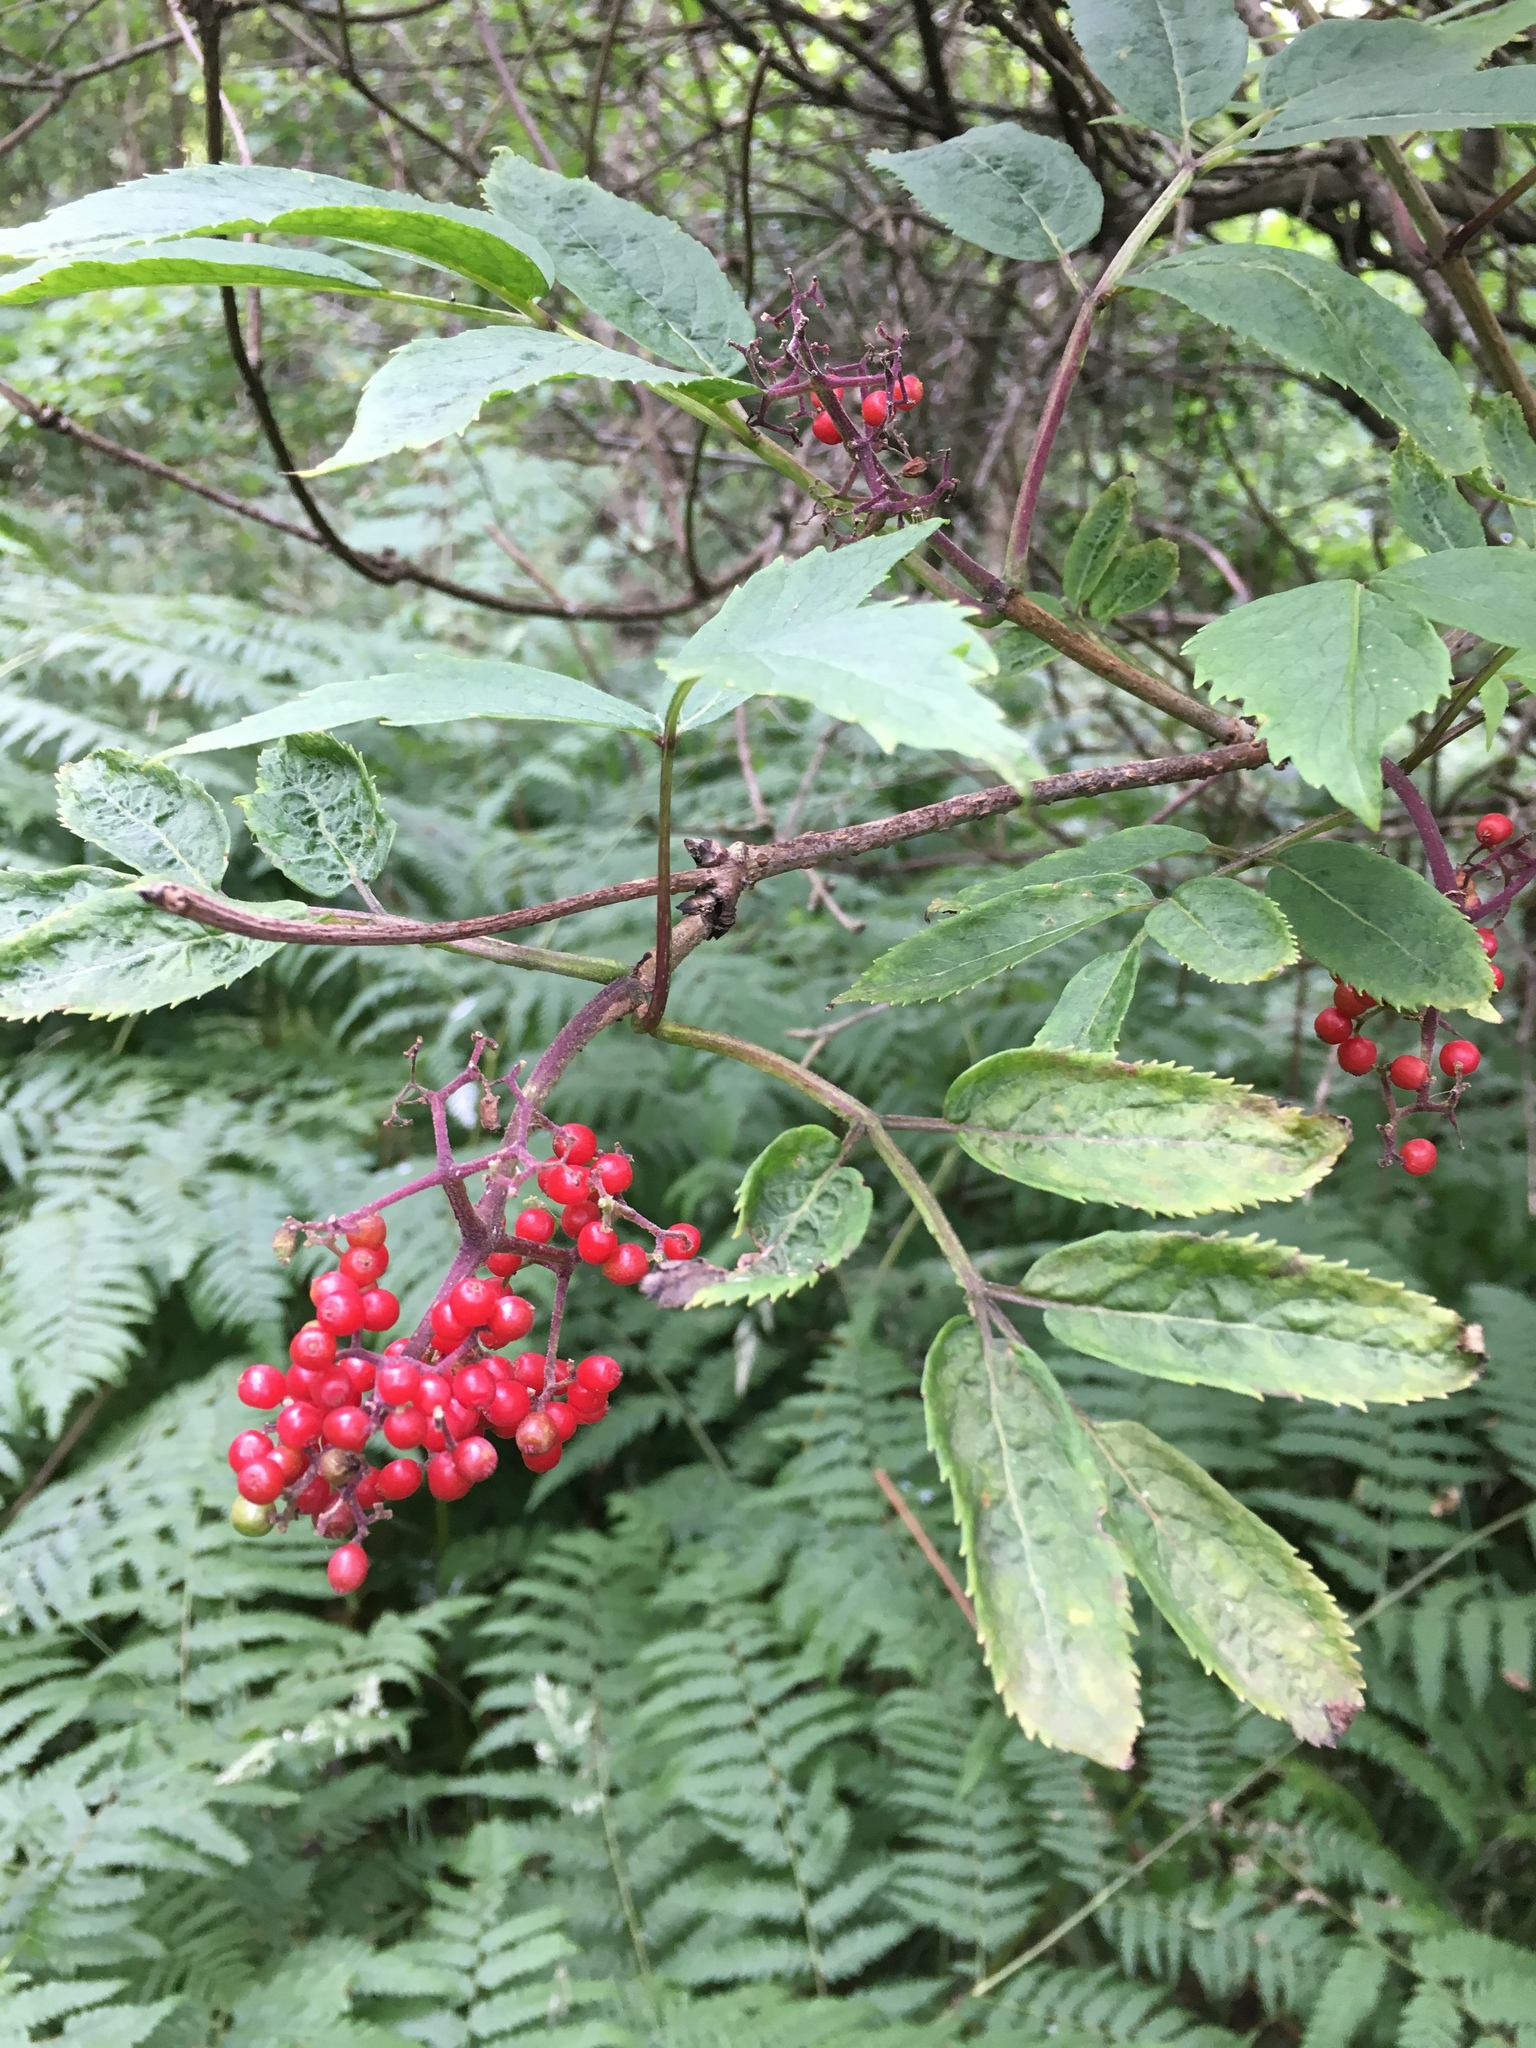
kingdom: Plantae
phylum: Tracheophyta
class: Magnoliopsida
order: Dipsacales
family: Viburnaceae
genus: Sambucus
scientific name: Sambucus racemosa
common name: Red-berried elder
